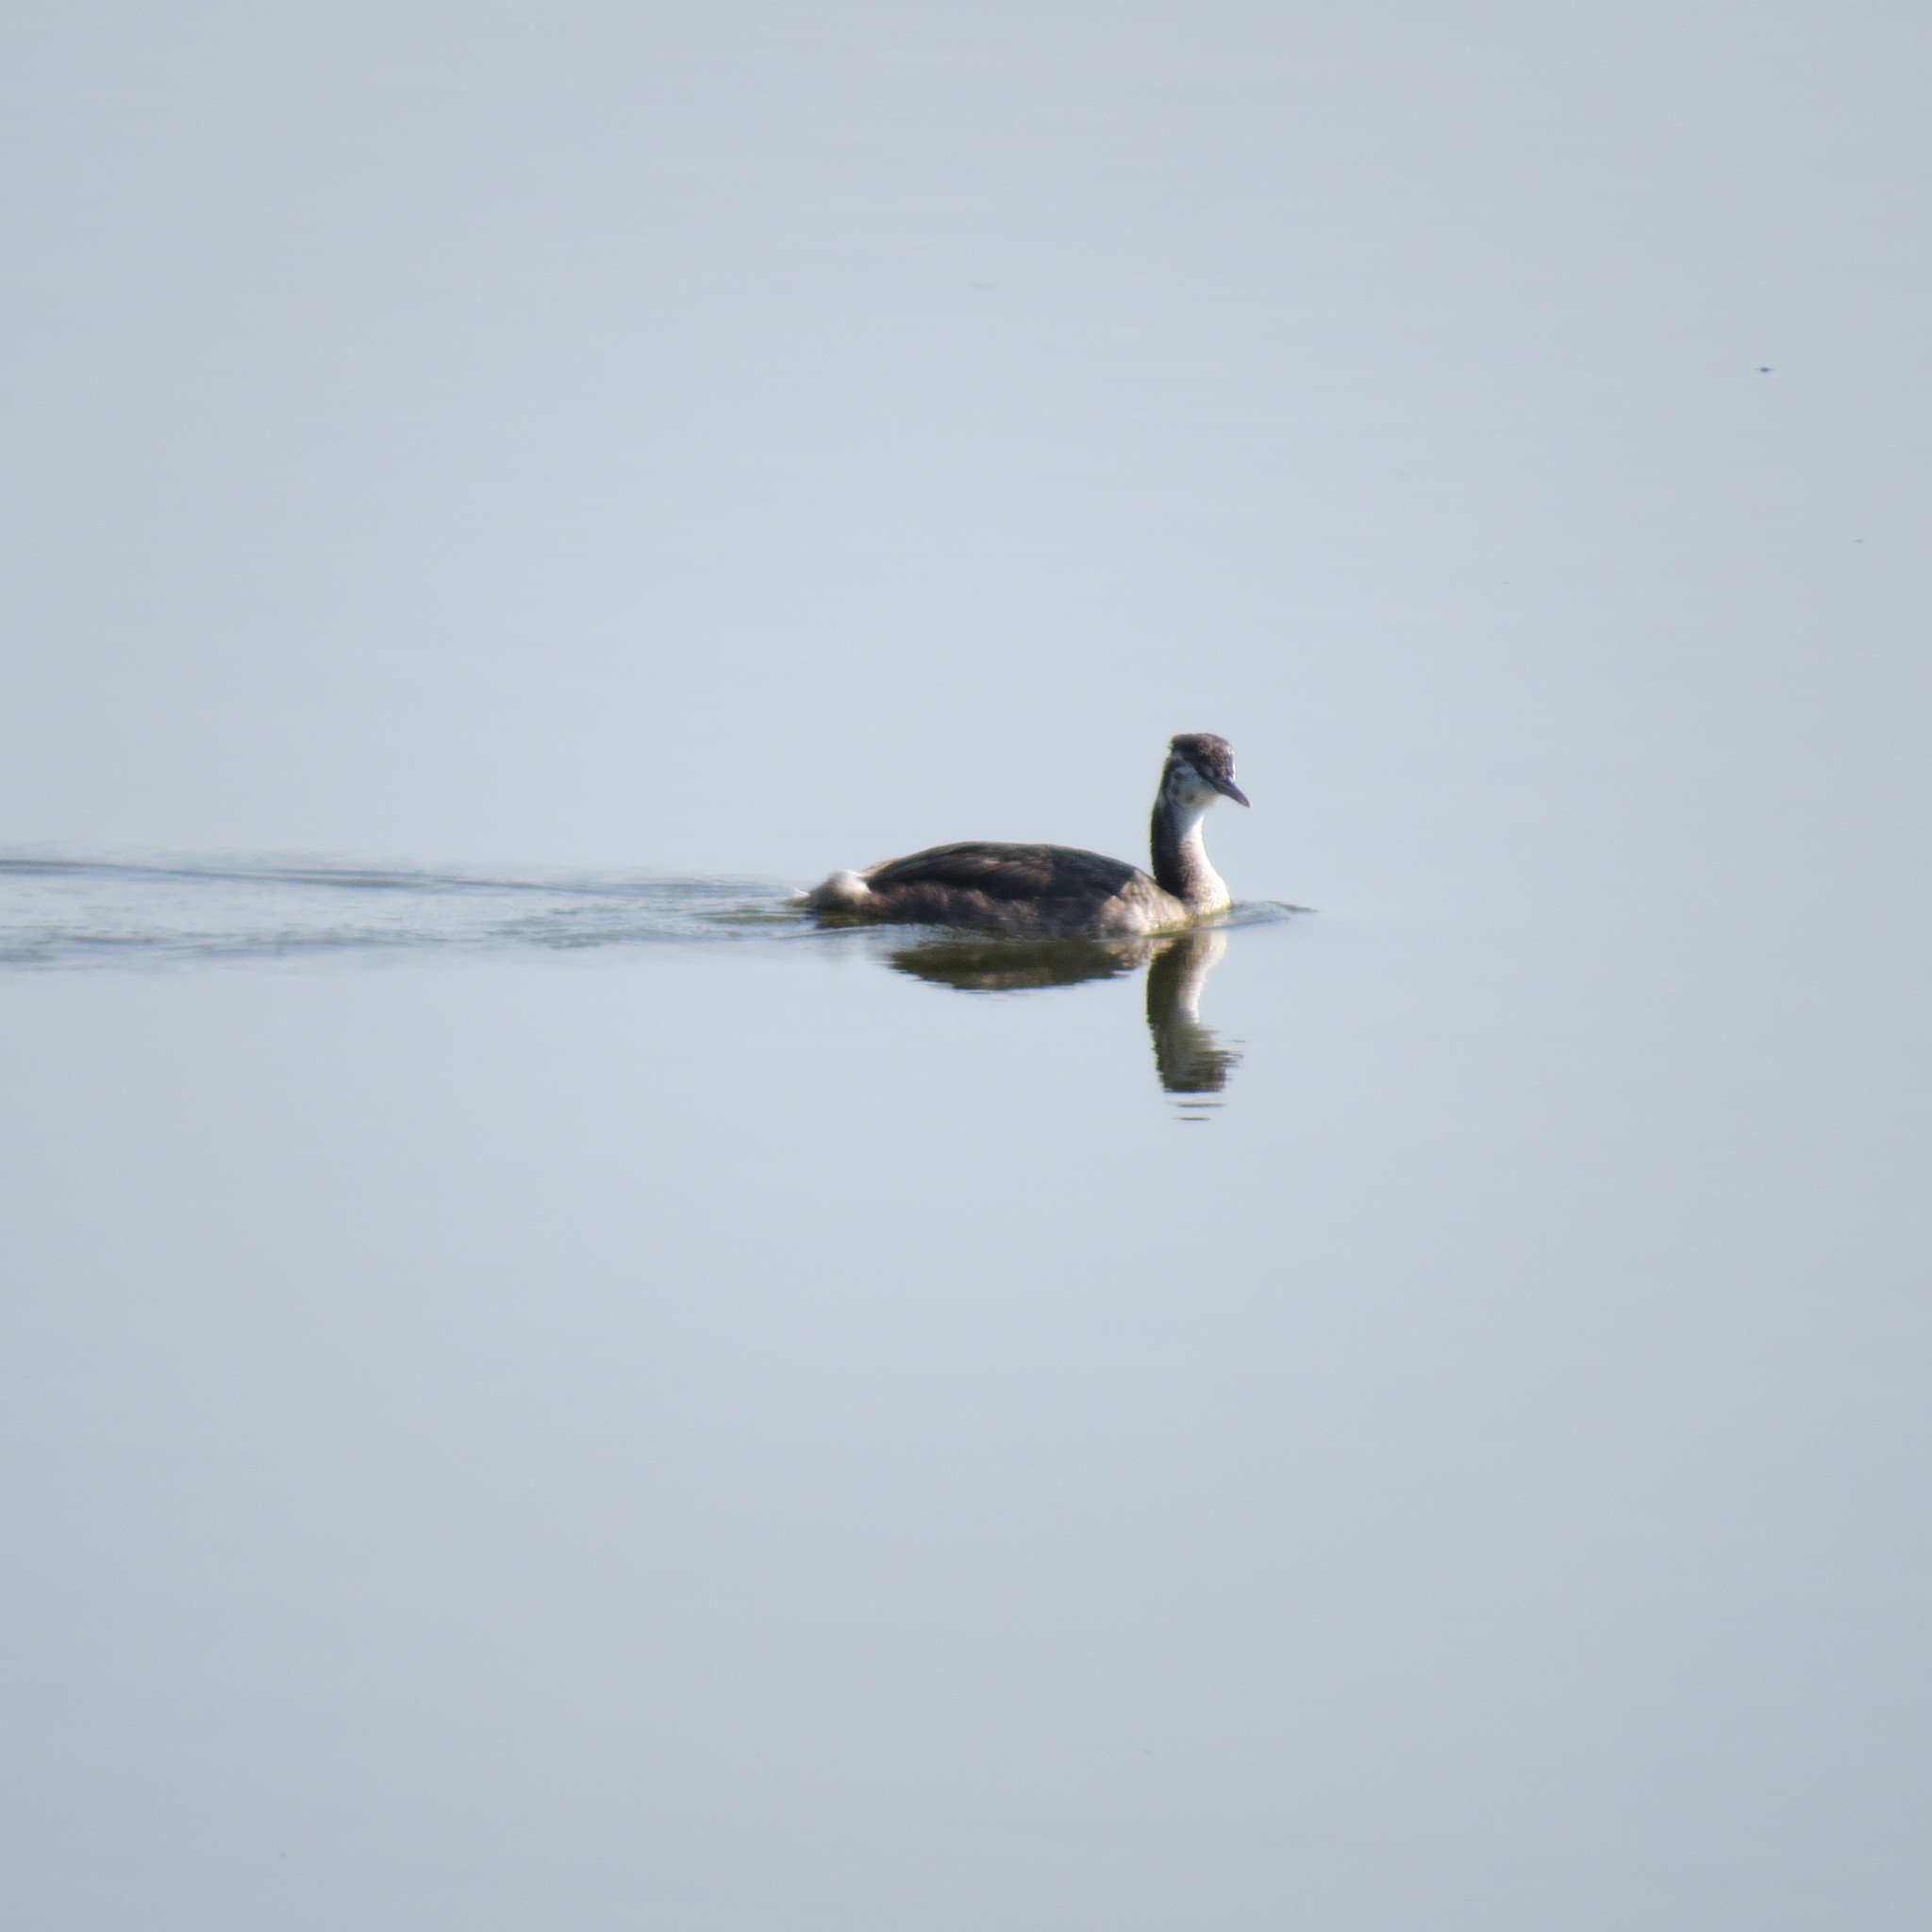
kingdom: Animalia
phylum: Chordata
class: Aves
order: Podicipediformes
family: Podicipedidae
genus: Podiceps
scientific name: Podiceps cristatus
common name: Great crested grebe
